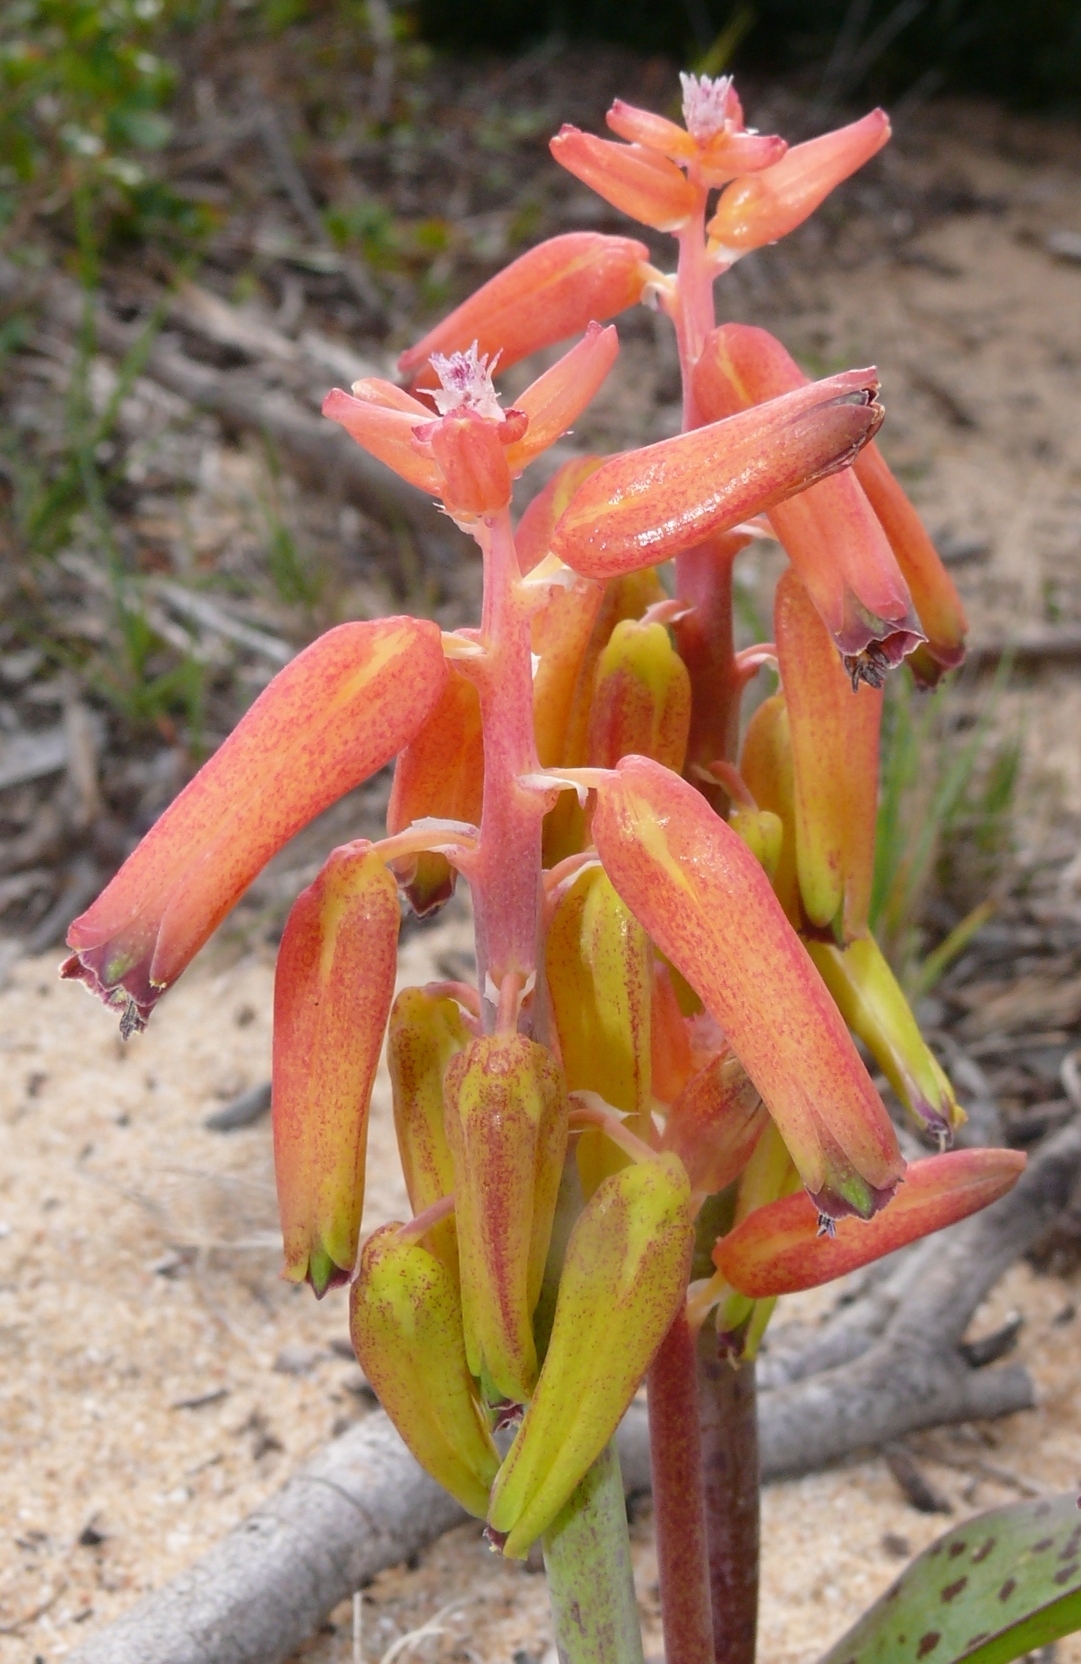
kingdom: Plantae
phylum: Tracheophyta
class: Liliopsida
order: Asparagales
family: Asparagaceae
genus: Lachenalia
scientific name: Lachenalia bulbifera
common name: Red lachenalia
